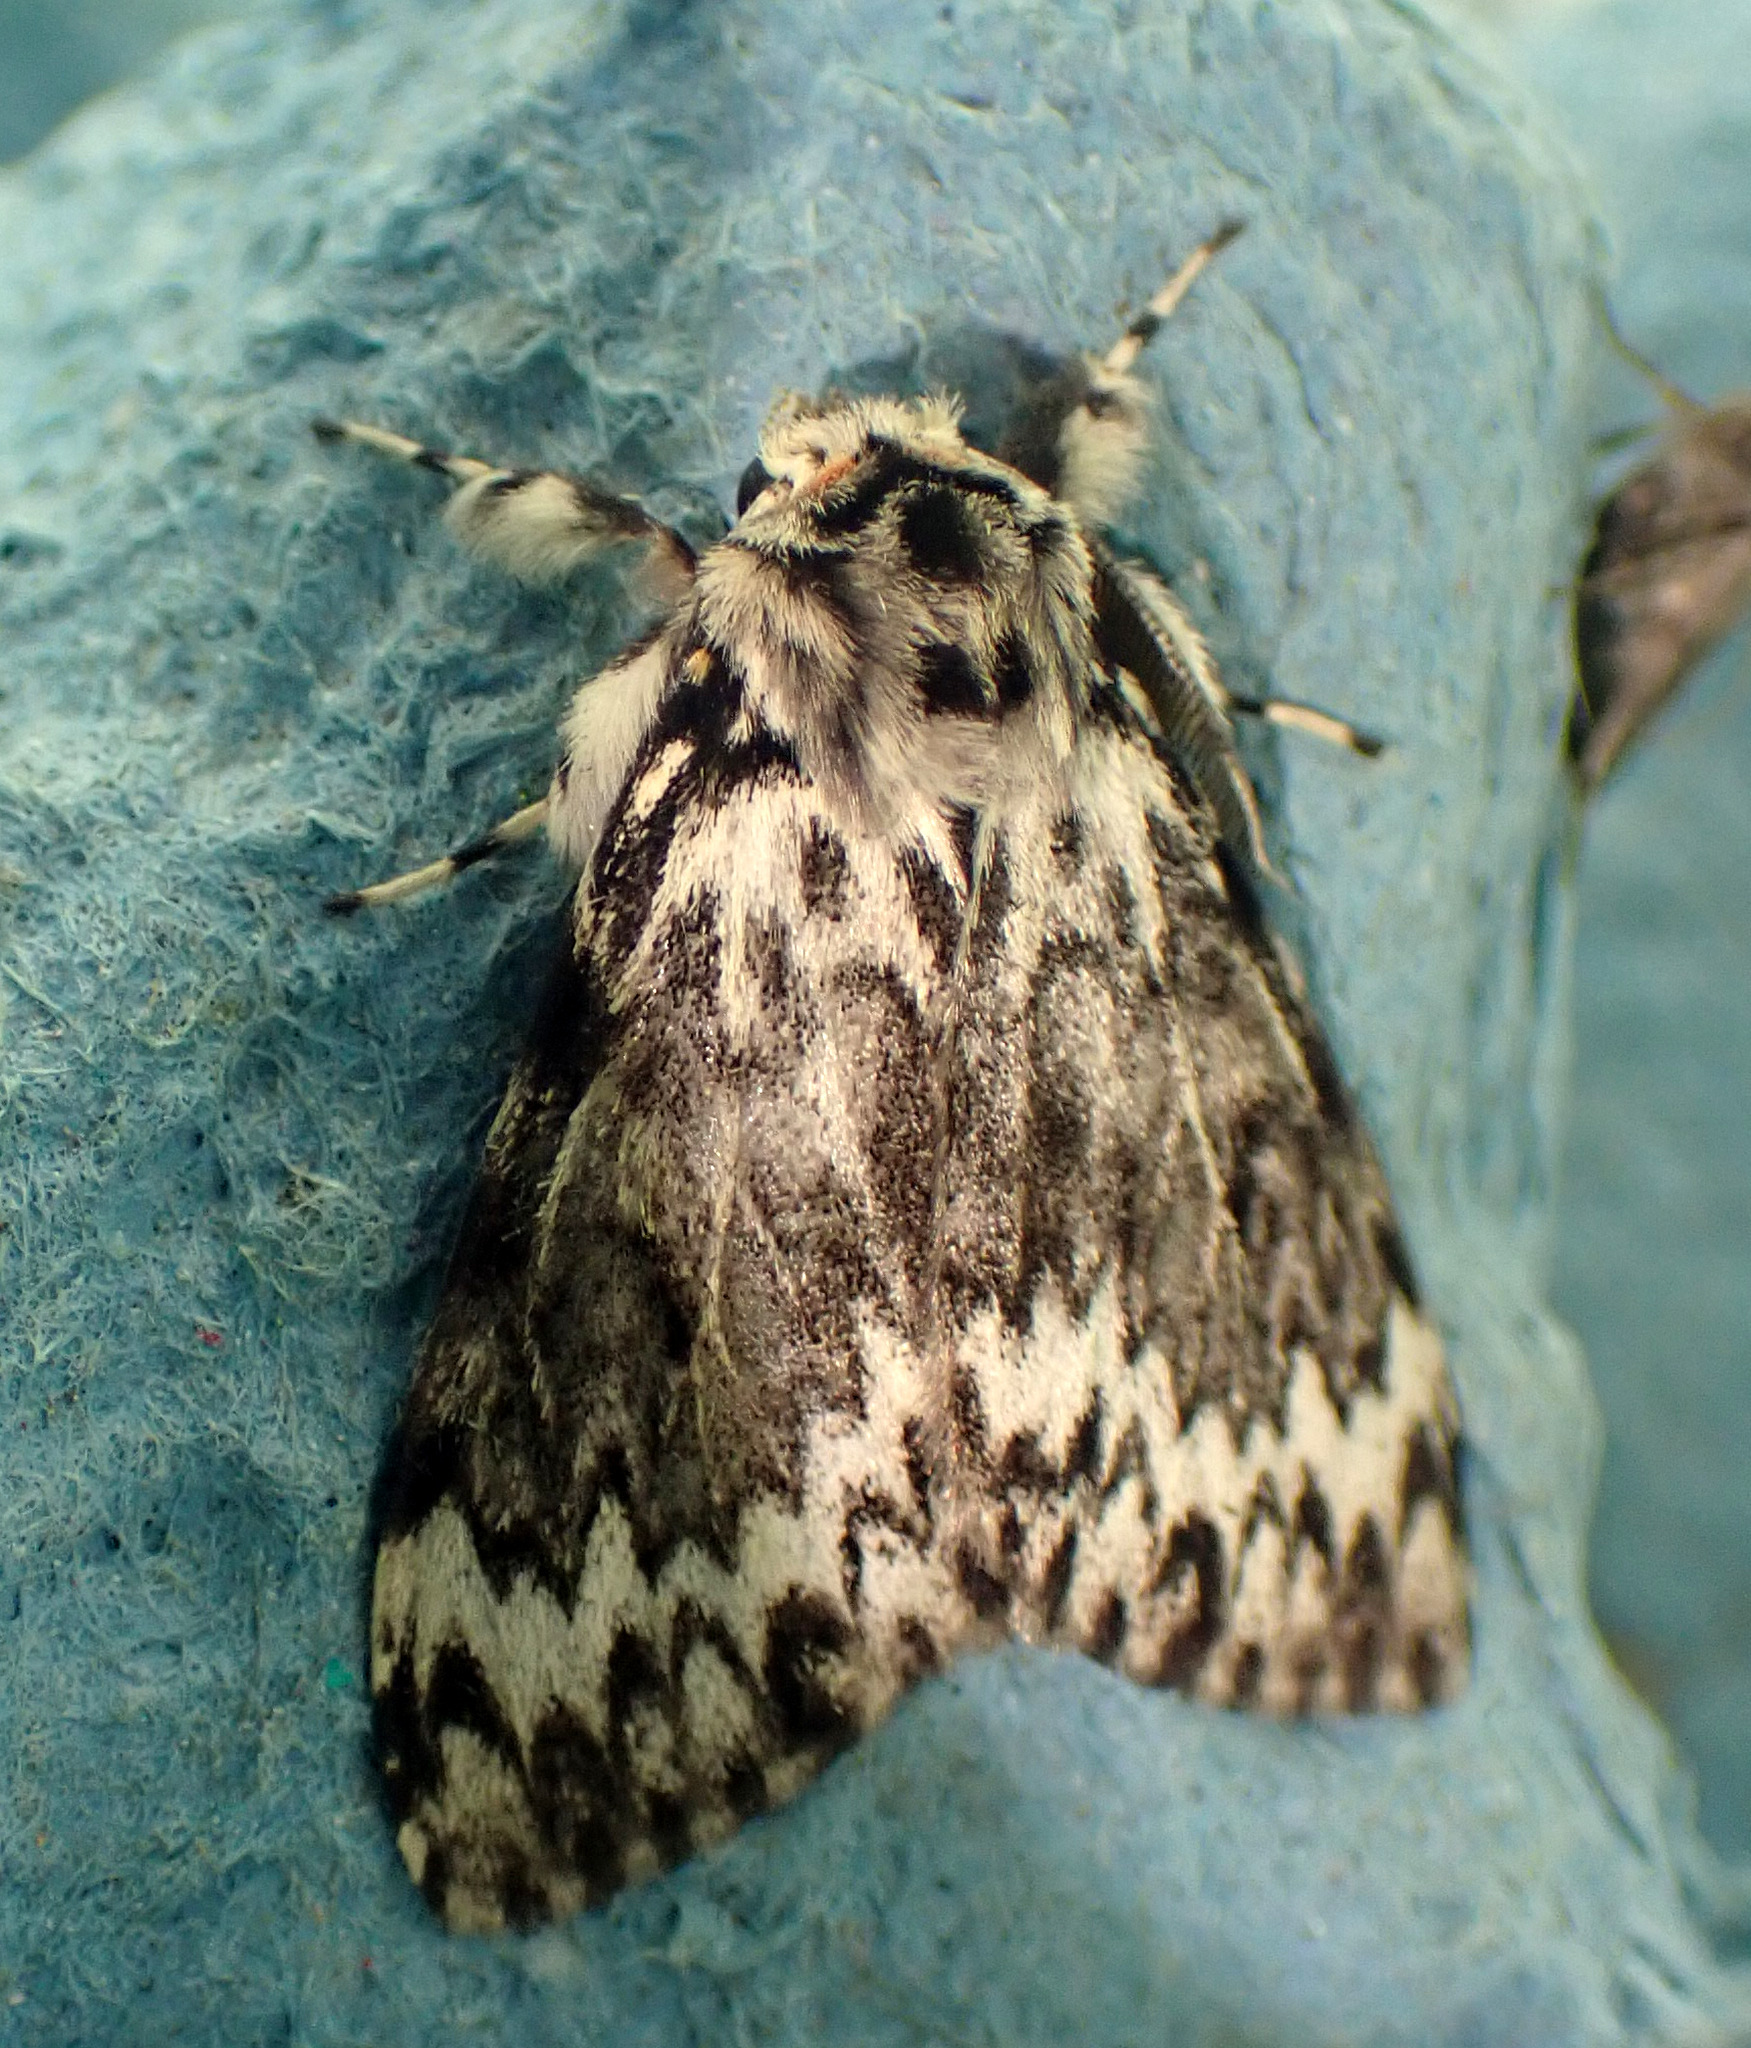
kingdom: Animalia
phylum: Arthropoda
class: Insecta
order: Lepidoptera
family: Erebidae
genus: Lymantria
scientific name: Lymantria monacha
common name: Black arches
